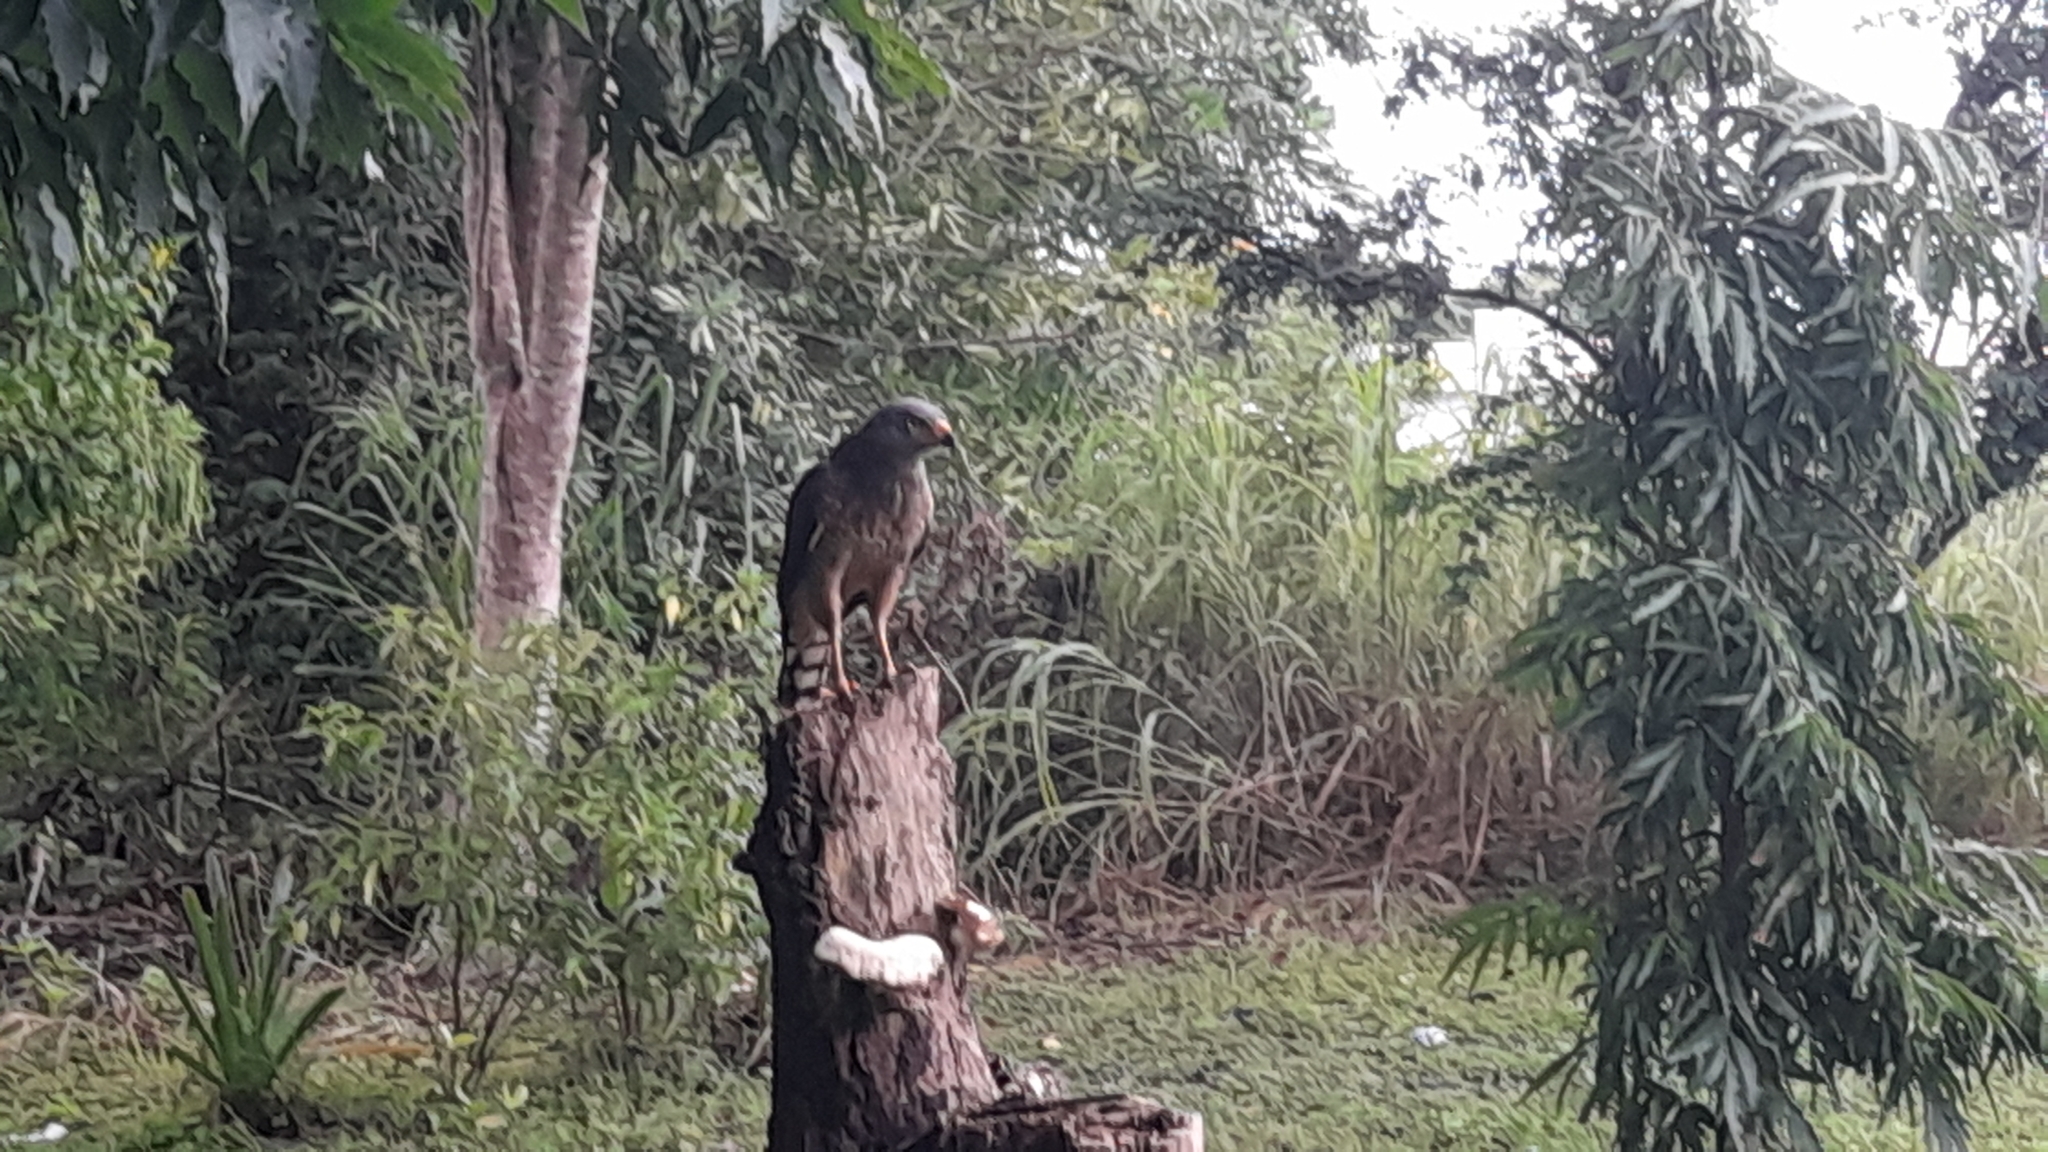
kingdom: Animalia
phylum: Chordata
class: Aves
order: Accipitriformes
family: Accipitridae
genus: Rupornis
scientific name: Rupornis magnirostris
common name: Roadside hawk
